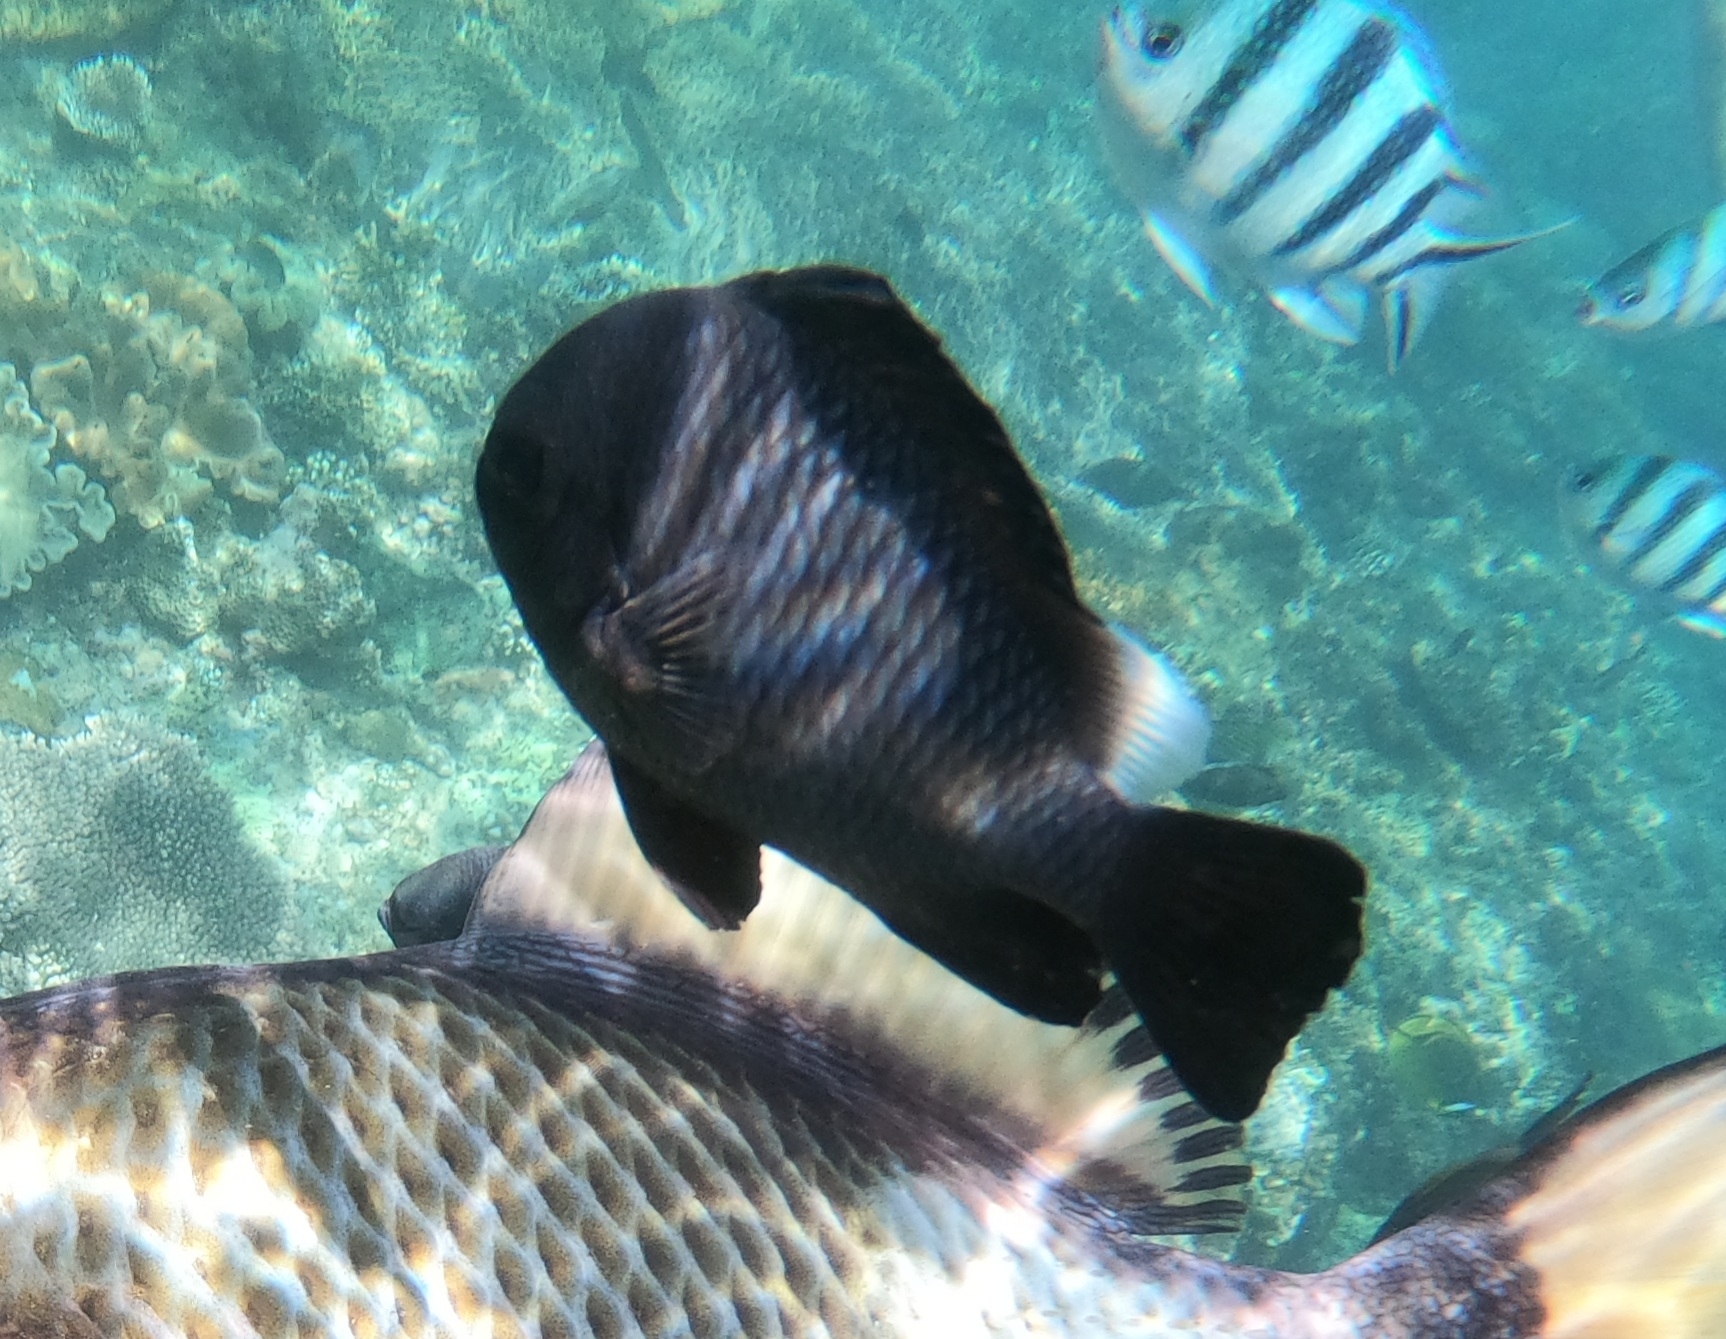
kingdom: Animalia
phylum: Chordata
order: Perciformes
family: Pomacentridae
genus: Dascyllus
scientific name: Dascyllus trimaculatus
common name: Threespot dascyllus
